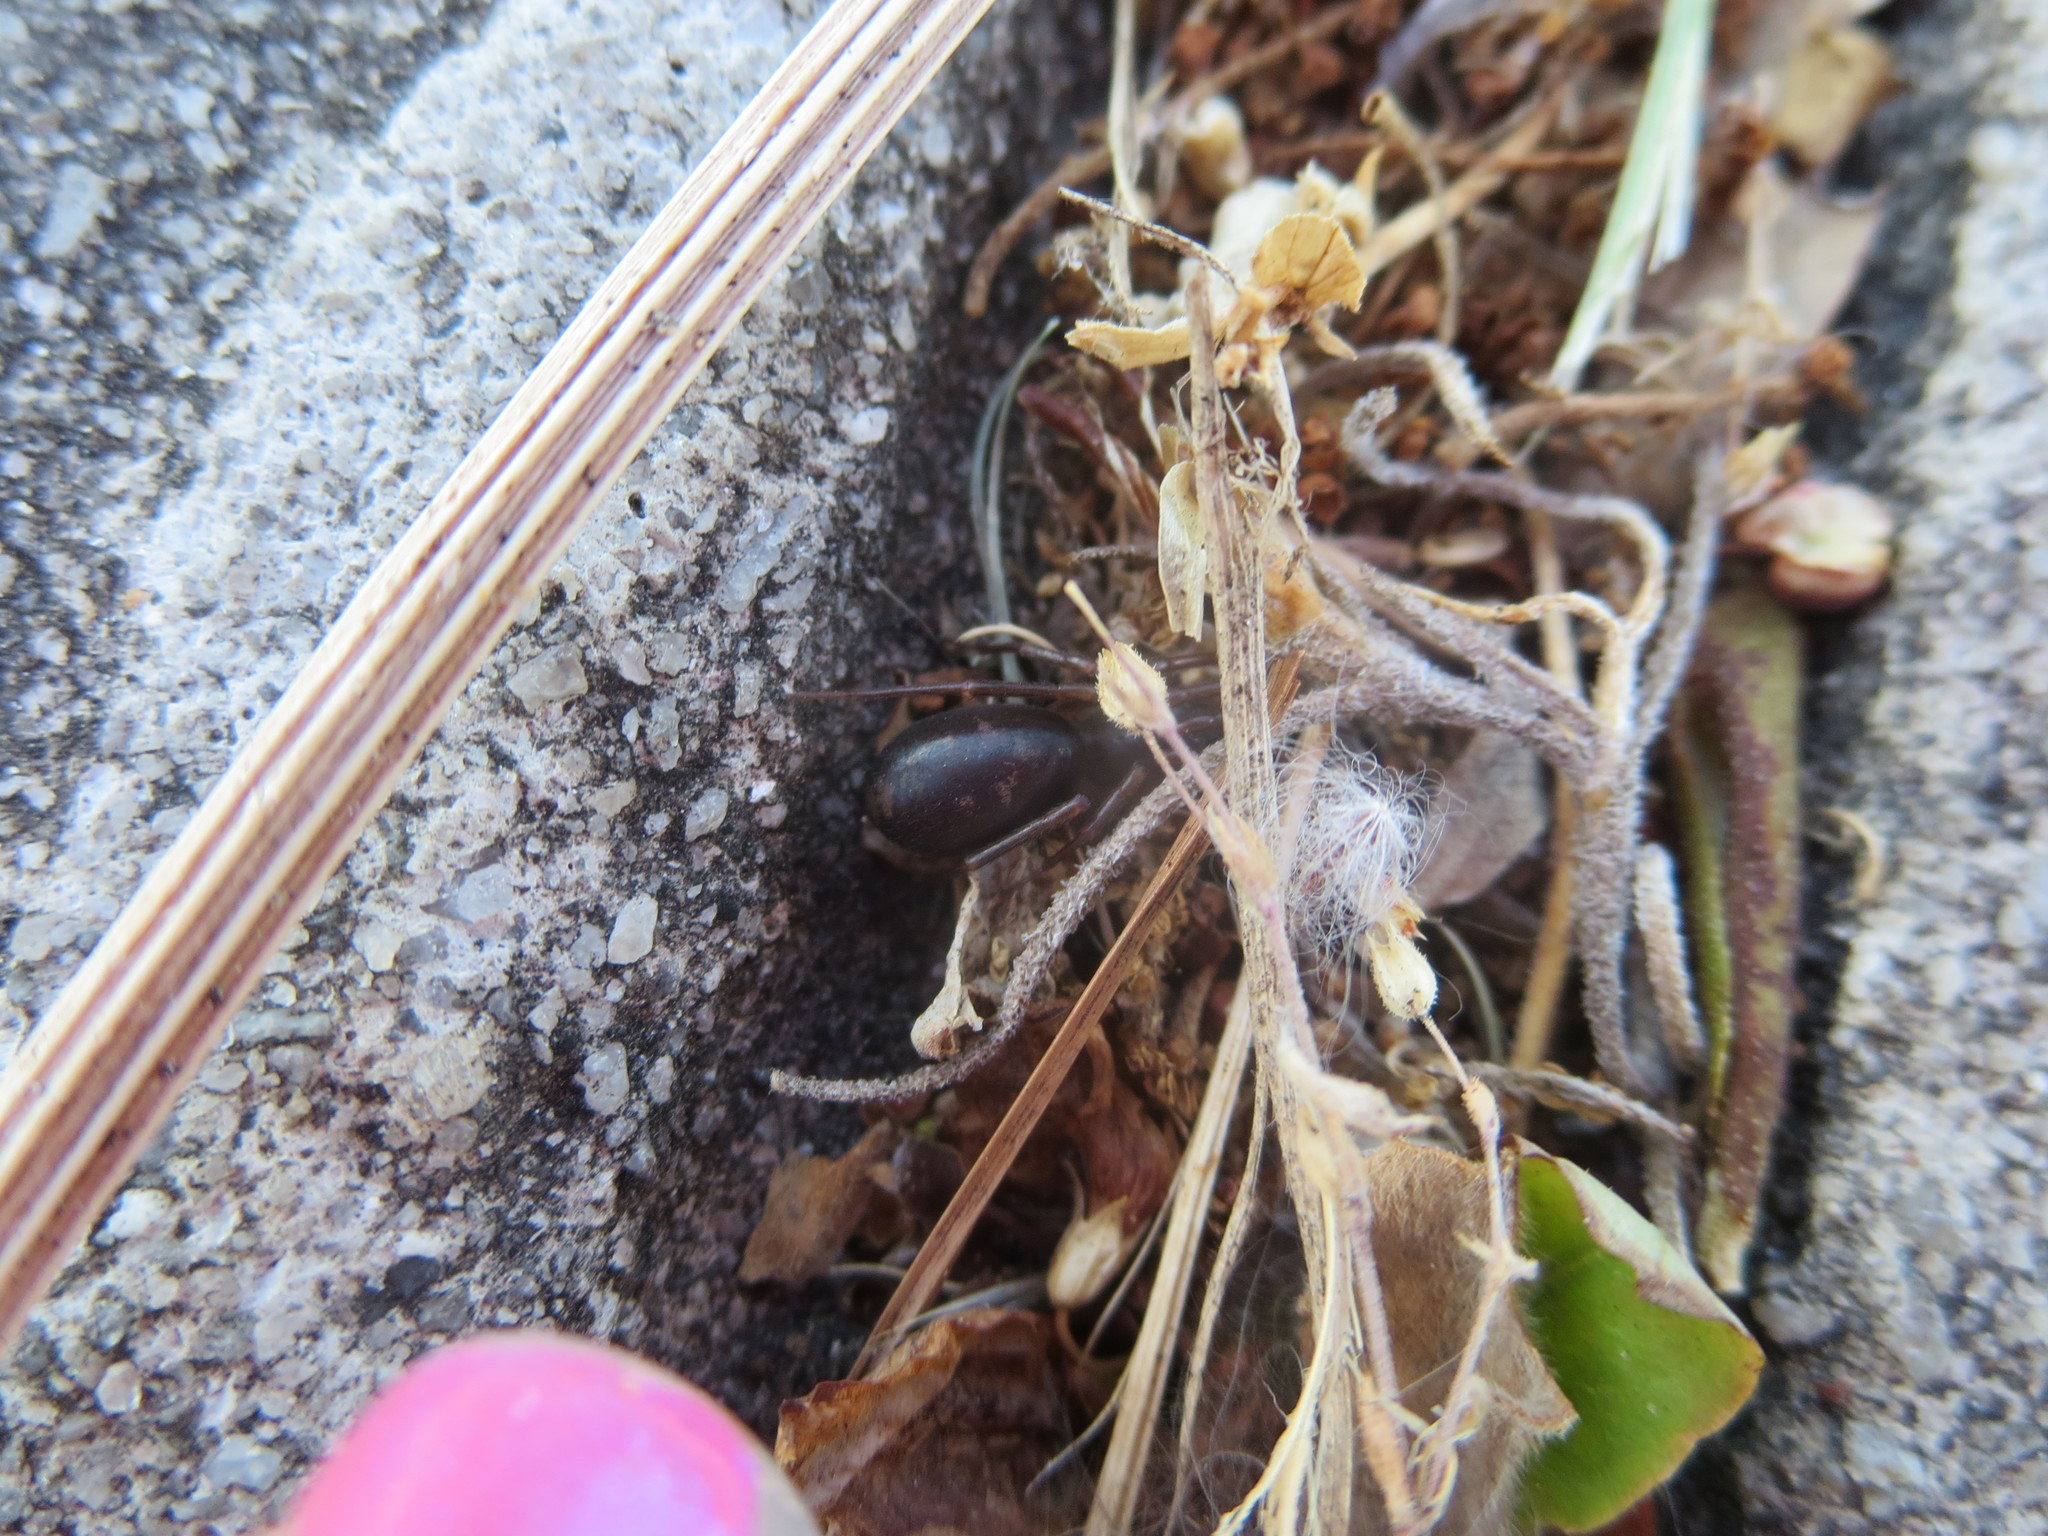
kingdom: Plantae
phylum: Tracheophyta
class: Liliopsida
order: Poales
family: Bromeliaceae
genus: Tillandsia
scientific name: Tillandsia usneoides
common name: Spanish moss
